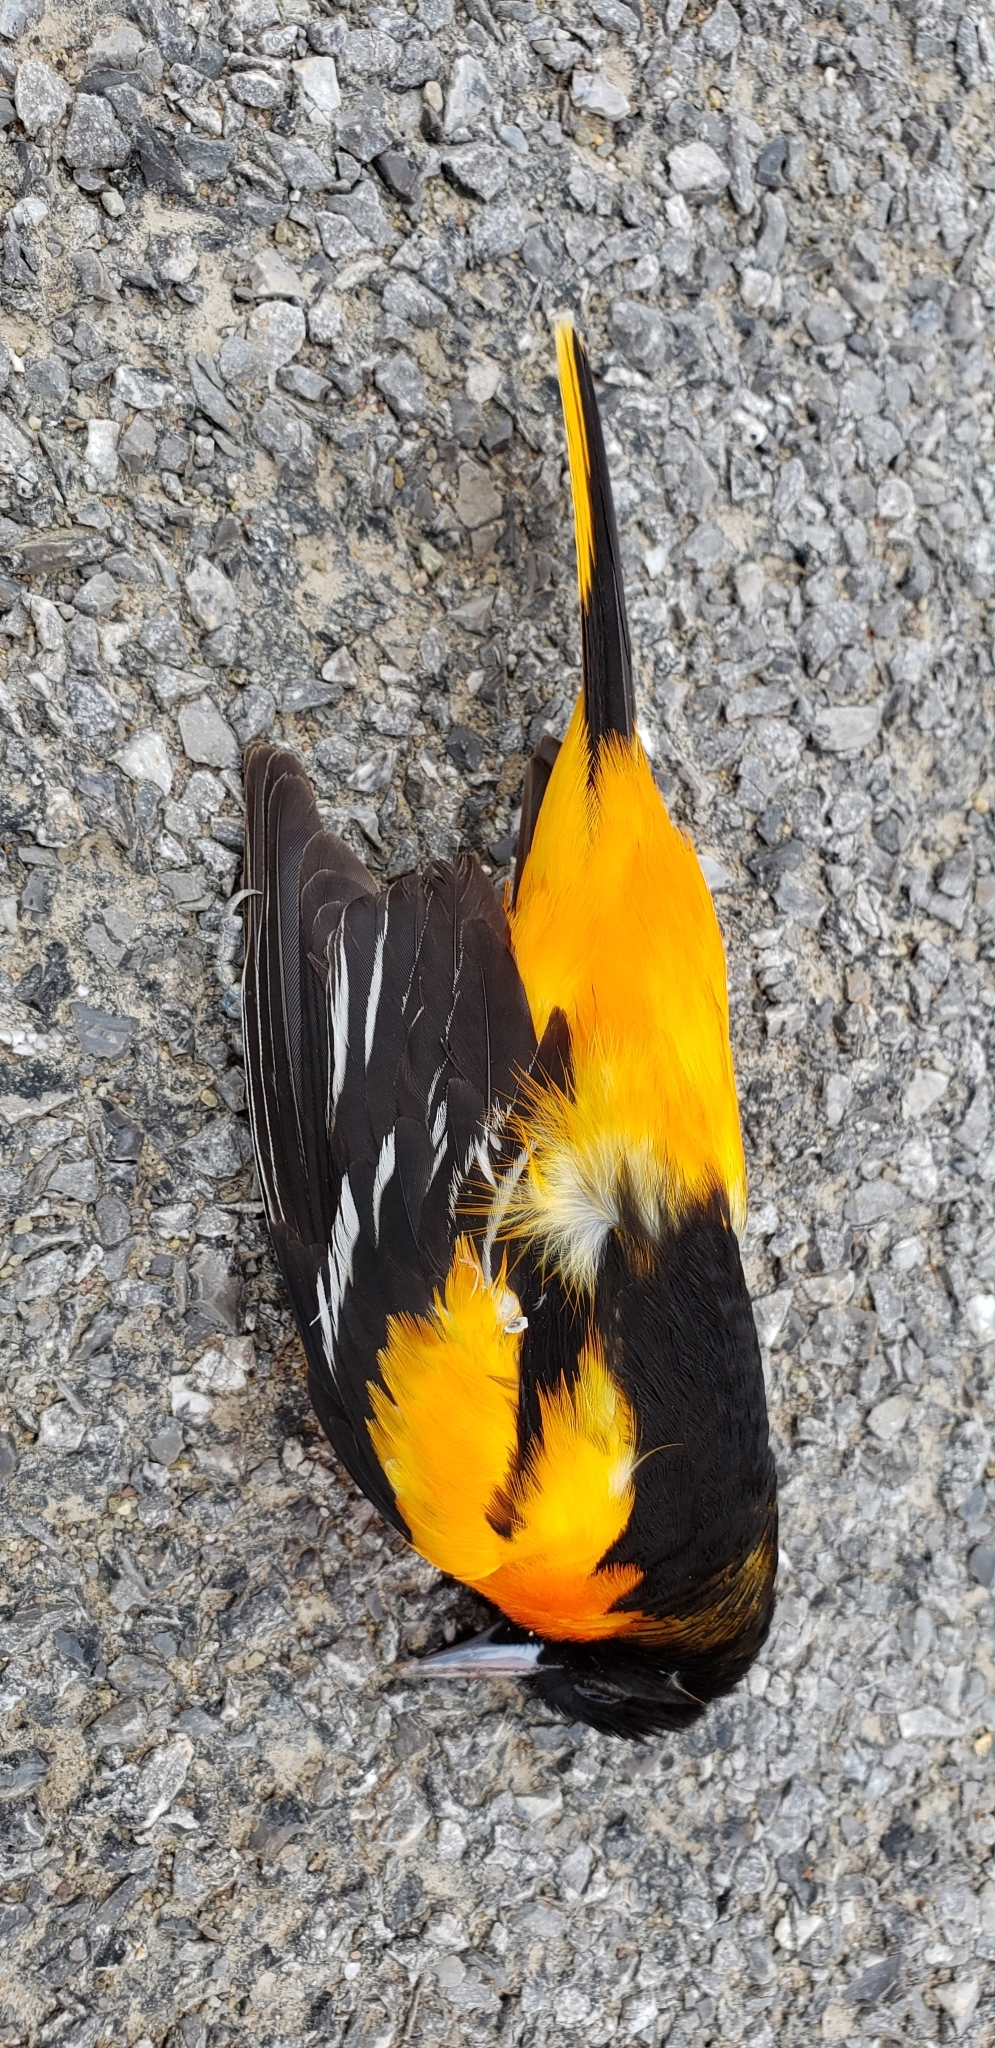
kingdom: Animalia
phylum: Chordata
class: Aves
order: Passeriformes
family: Icteridae
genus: Icterus
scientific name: Icterus galbula
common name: Baltimore oriole
